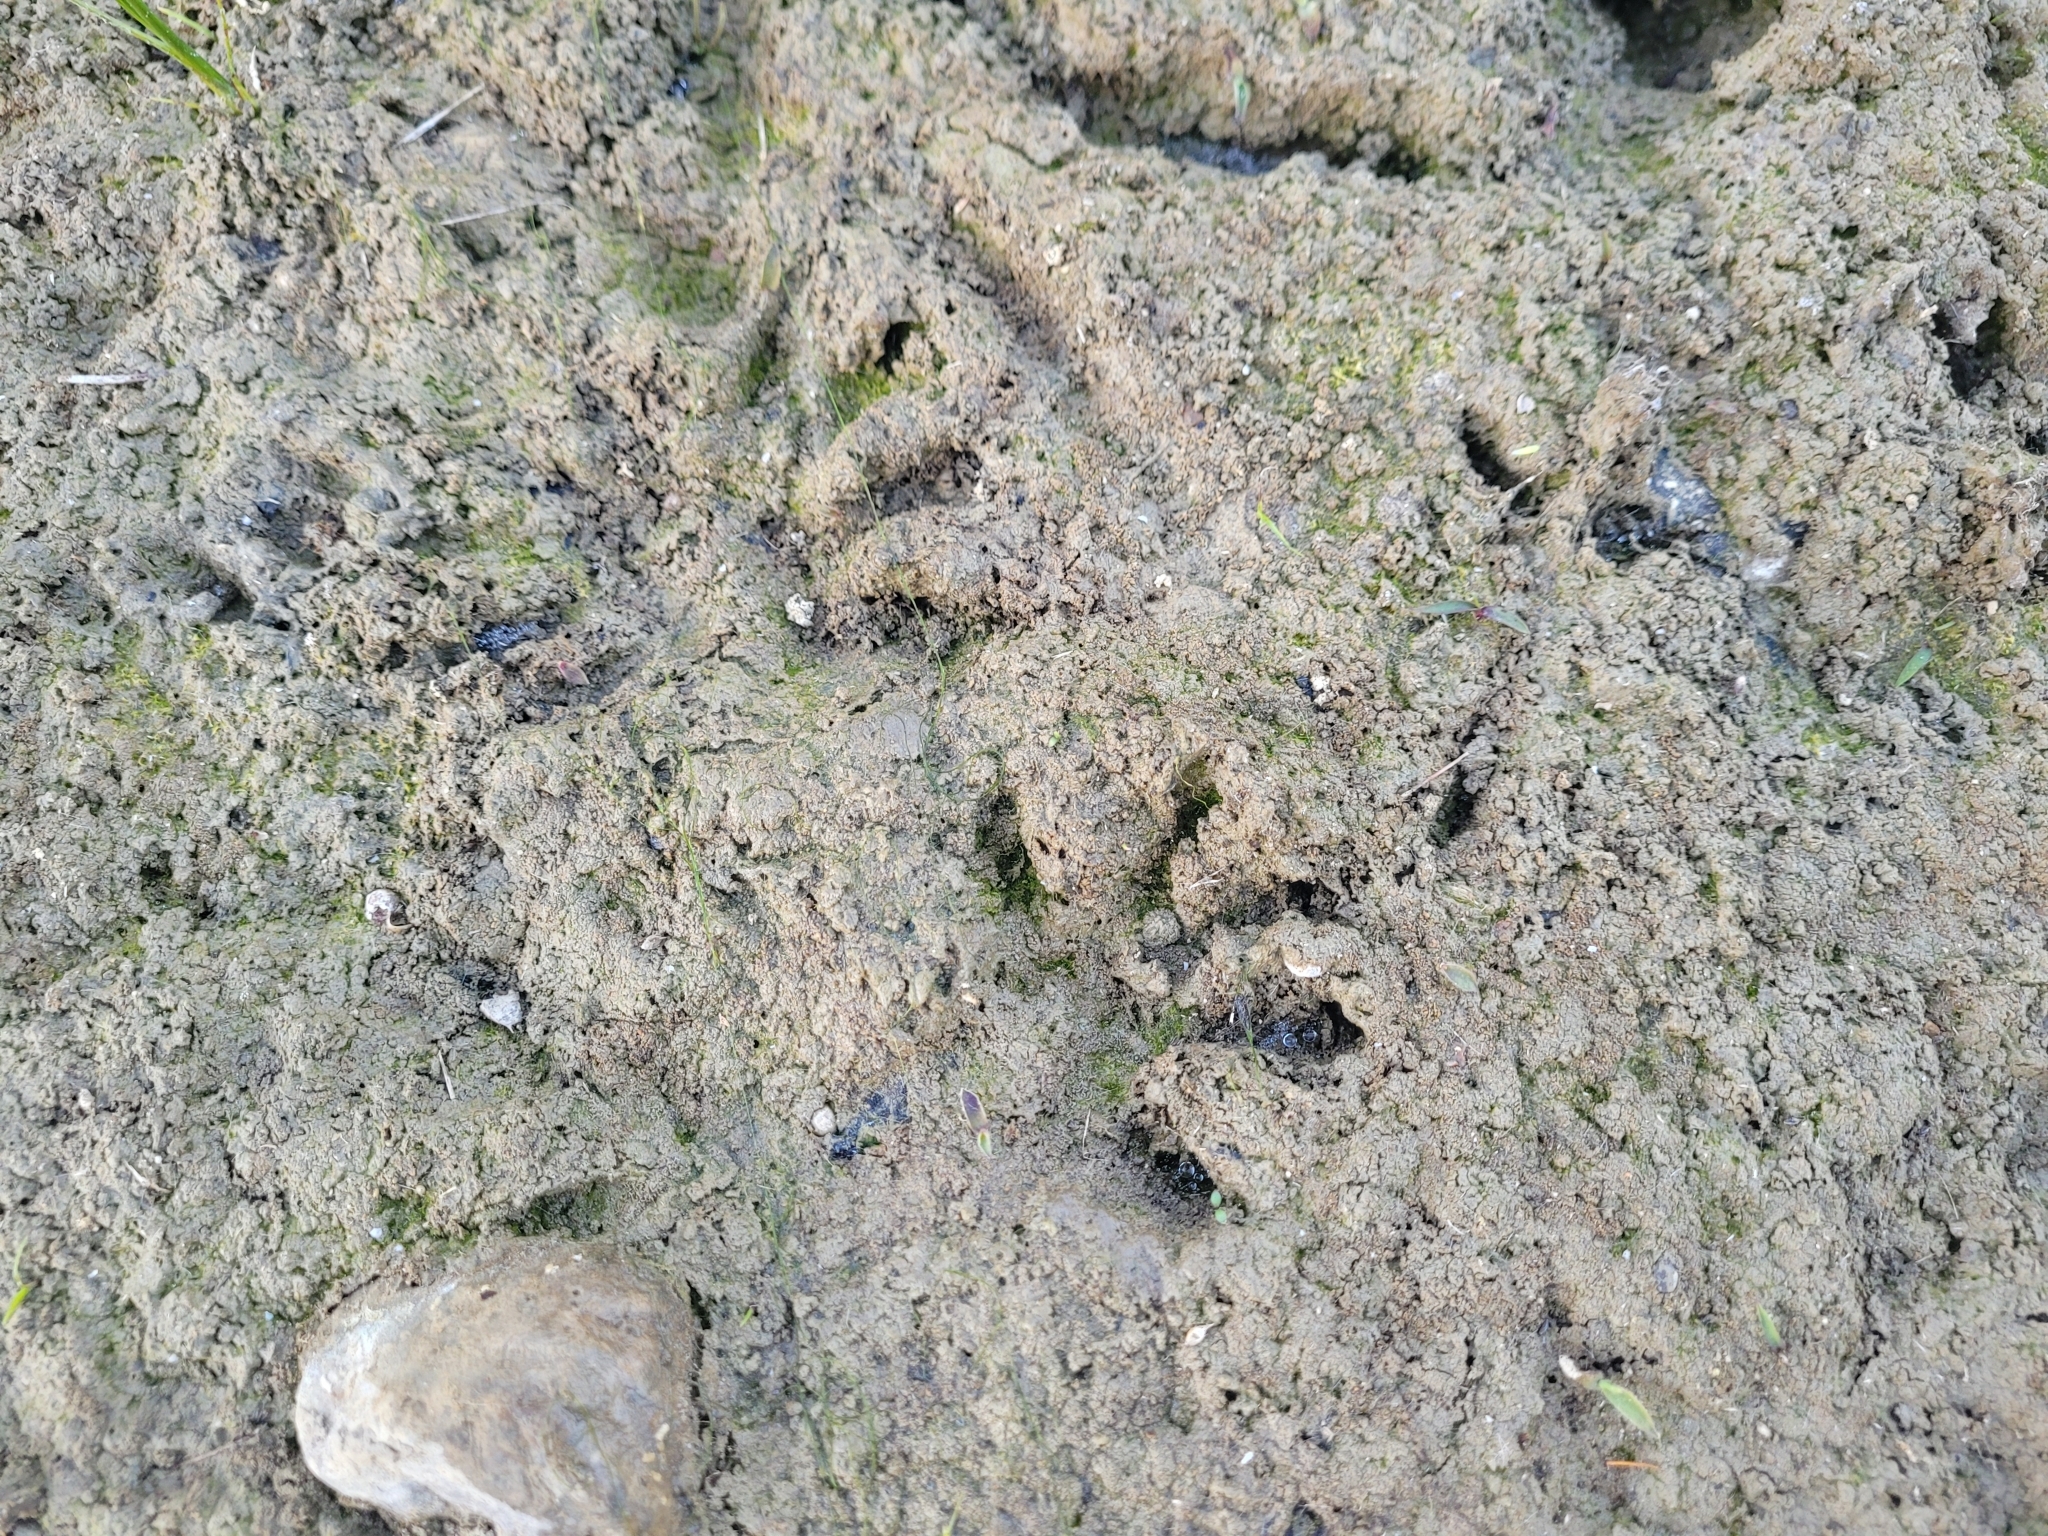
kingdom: Animalia
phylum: Chordata
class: Mammalia
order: Didelphimorphia
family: Didelphidae
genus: Didelphis
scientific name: Didelphis virginiana
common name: Virginia opossum
